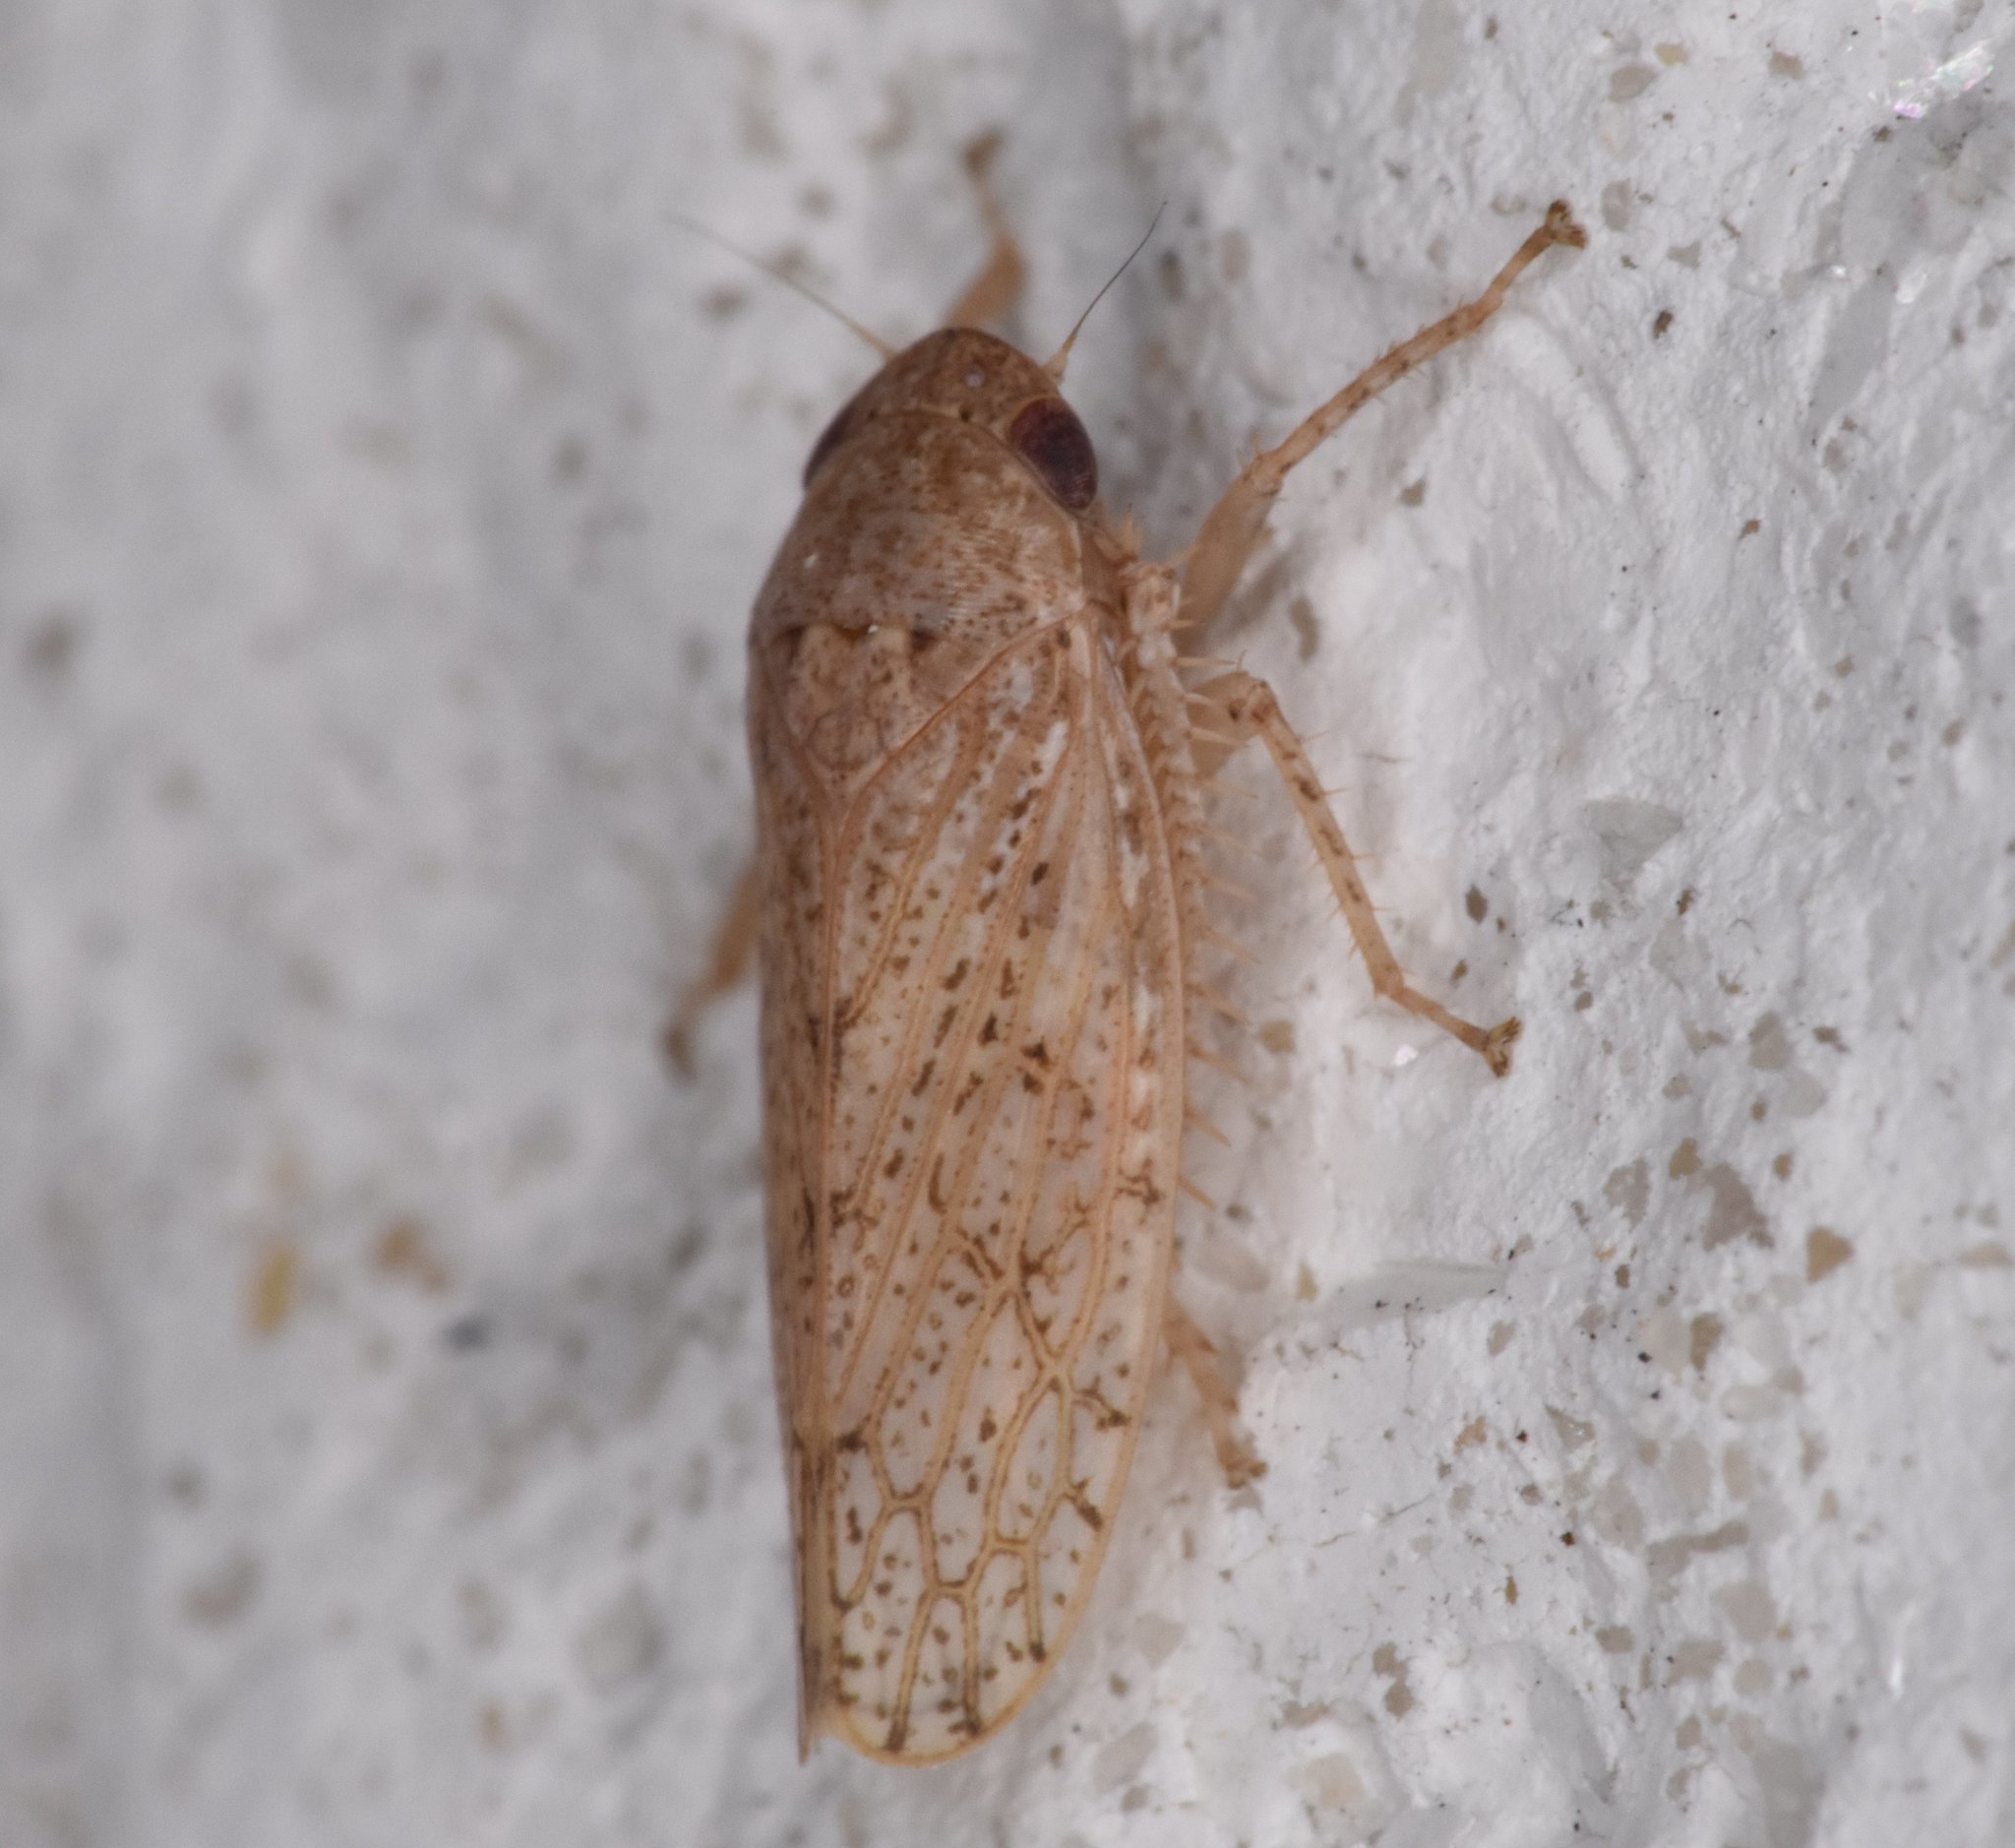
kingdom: Animalia
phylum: Arthropoda
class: Insecta
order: Hemiptera
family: Cicadellidae
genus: Curtara
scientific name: Curtara insularis
